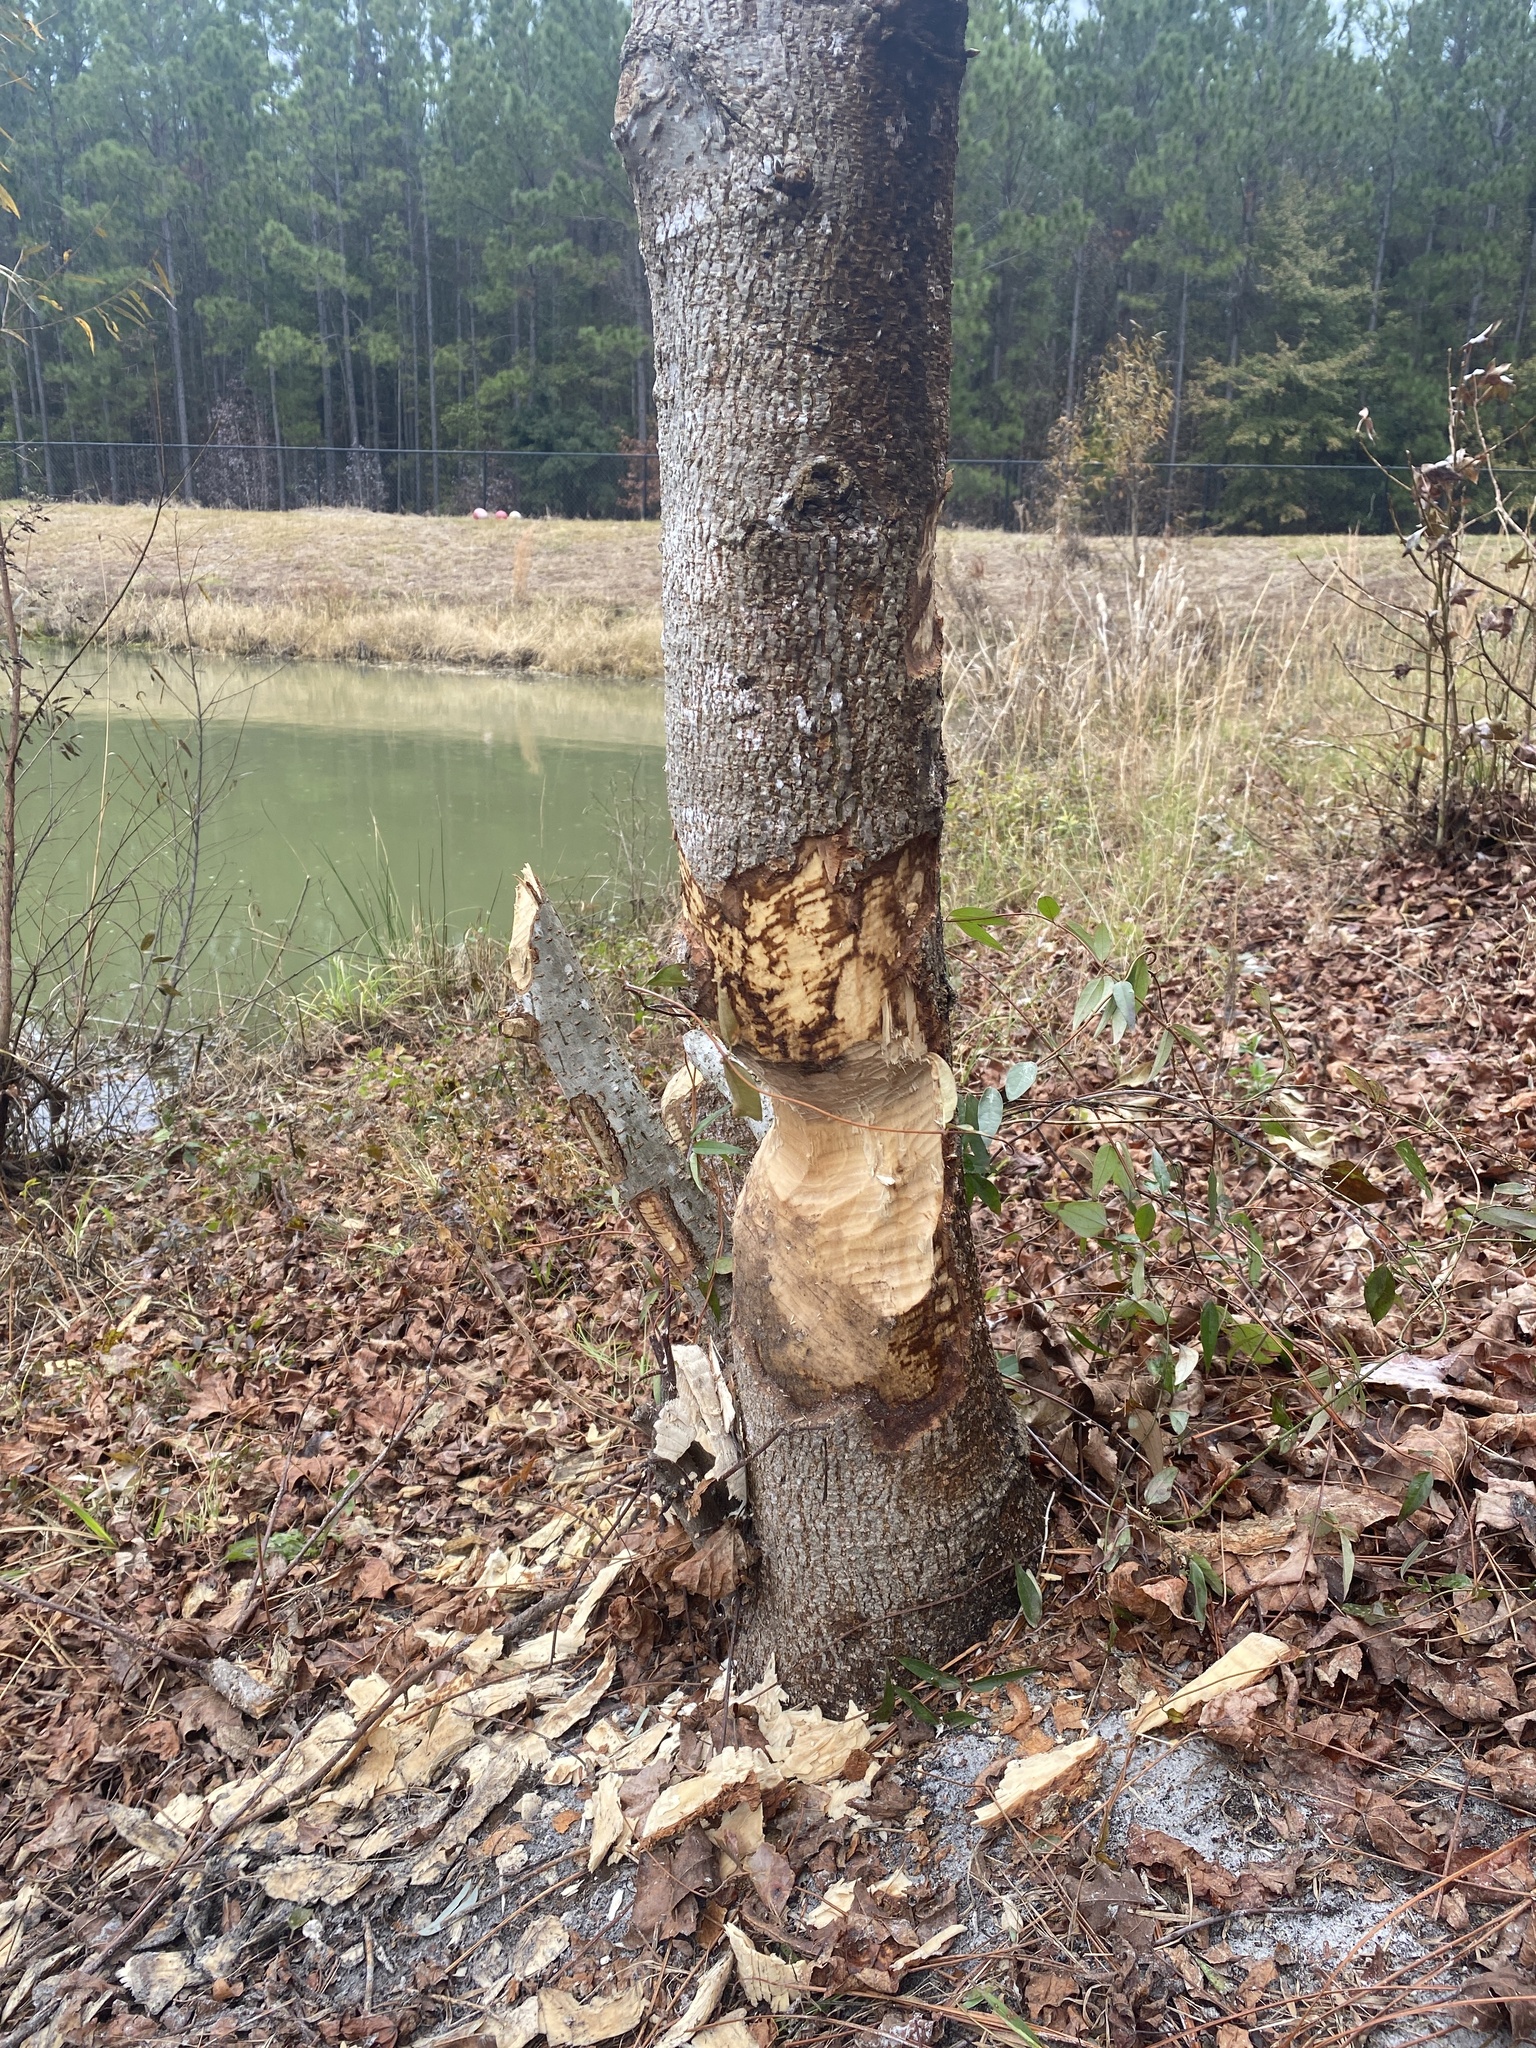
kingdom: Animalia
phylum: Chordata
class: Mammalia
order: Rodentia
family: Castoridae
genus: Castor
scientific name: Castor canadensis
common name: American beaver
